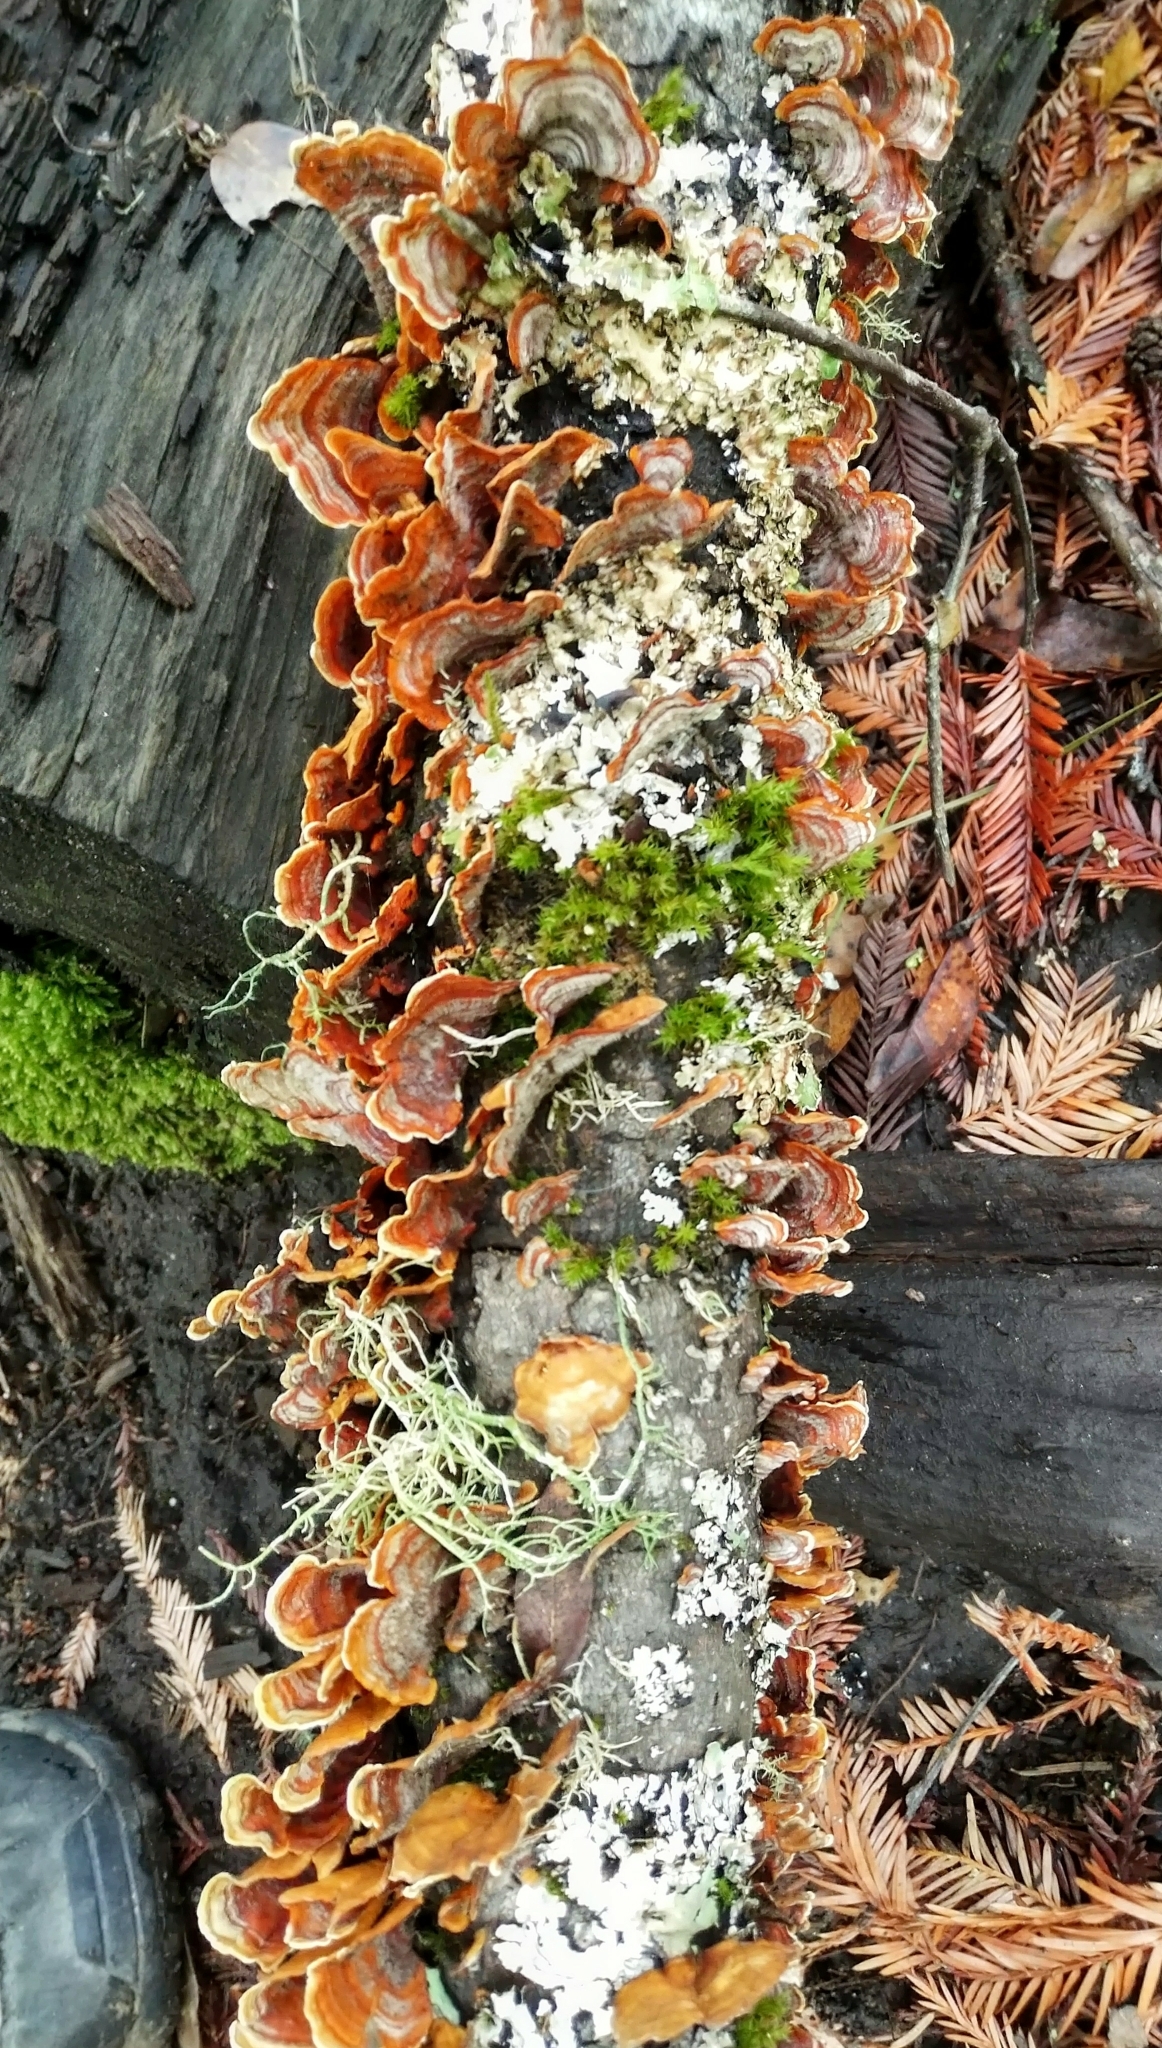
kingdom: Fungi
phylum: Basidiomycota
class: Agaricomycetes
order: Russulales
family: Stereaceae
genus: Stereum
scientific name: Stereum hirsutum
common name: Hairy curtain crust
